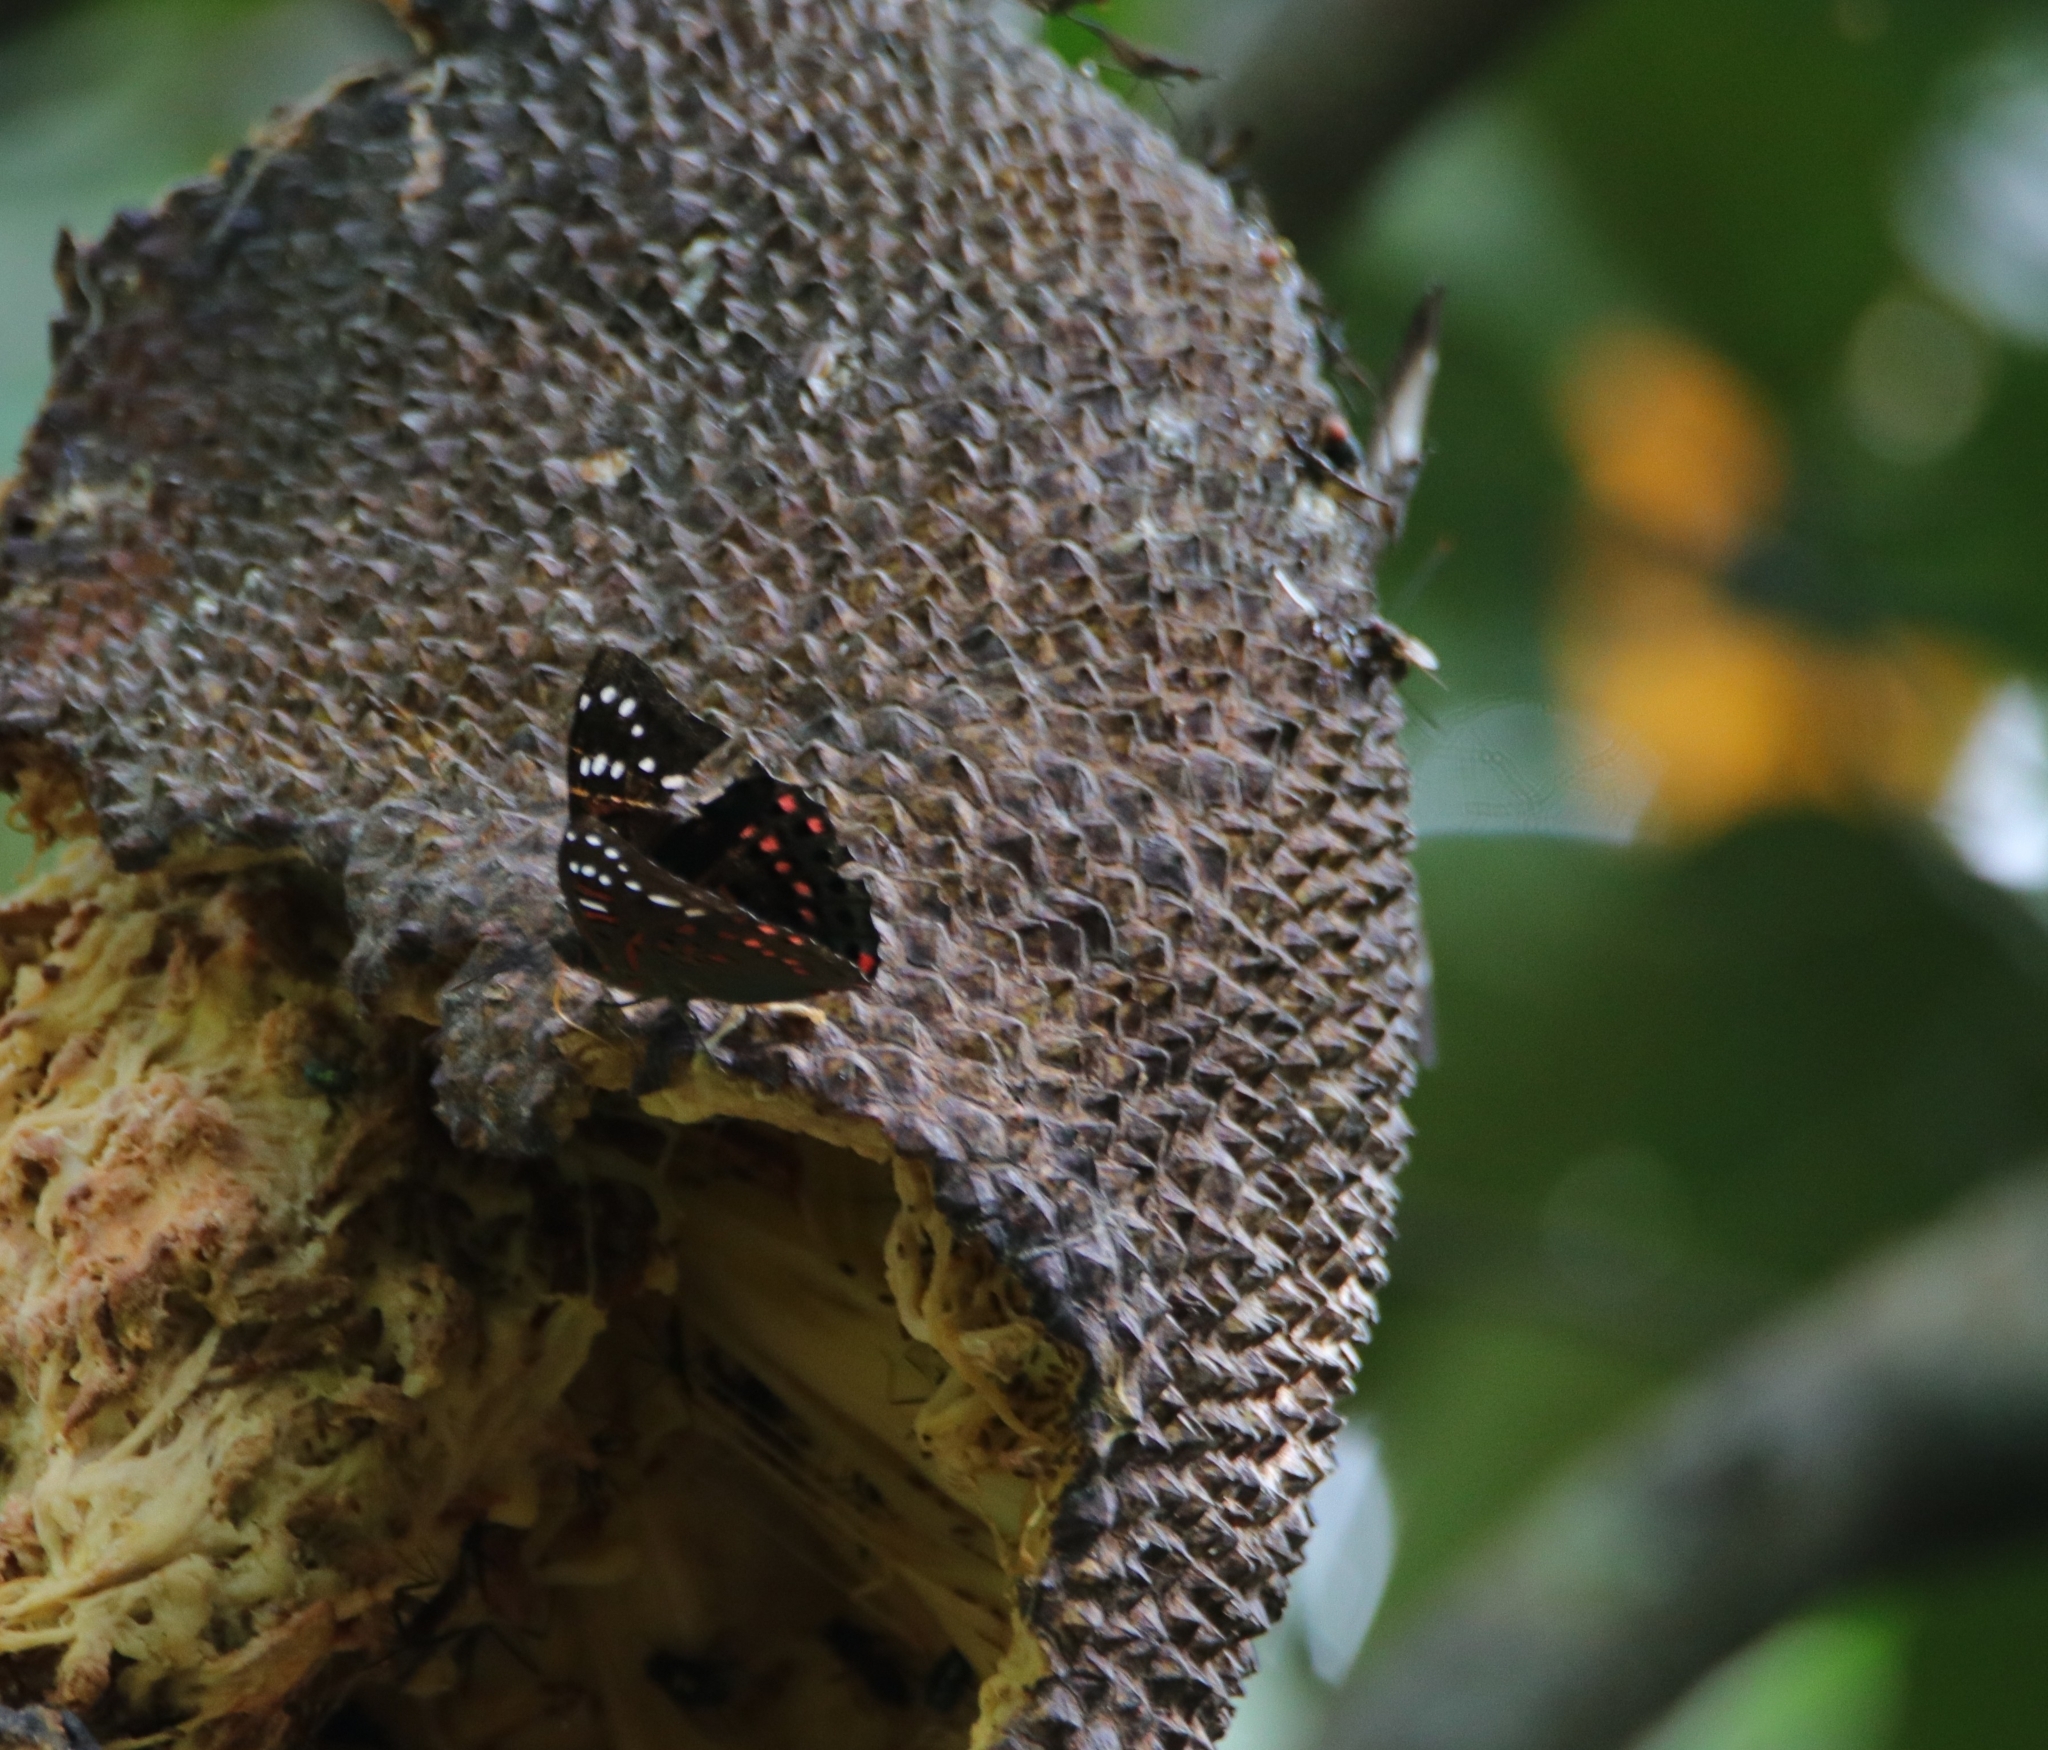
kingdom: Animalia
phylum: Arthropoda
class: Insecta
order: Lepidoptera
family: Nymphalidae
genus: Euthalia
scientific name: Euthalia lubentina
